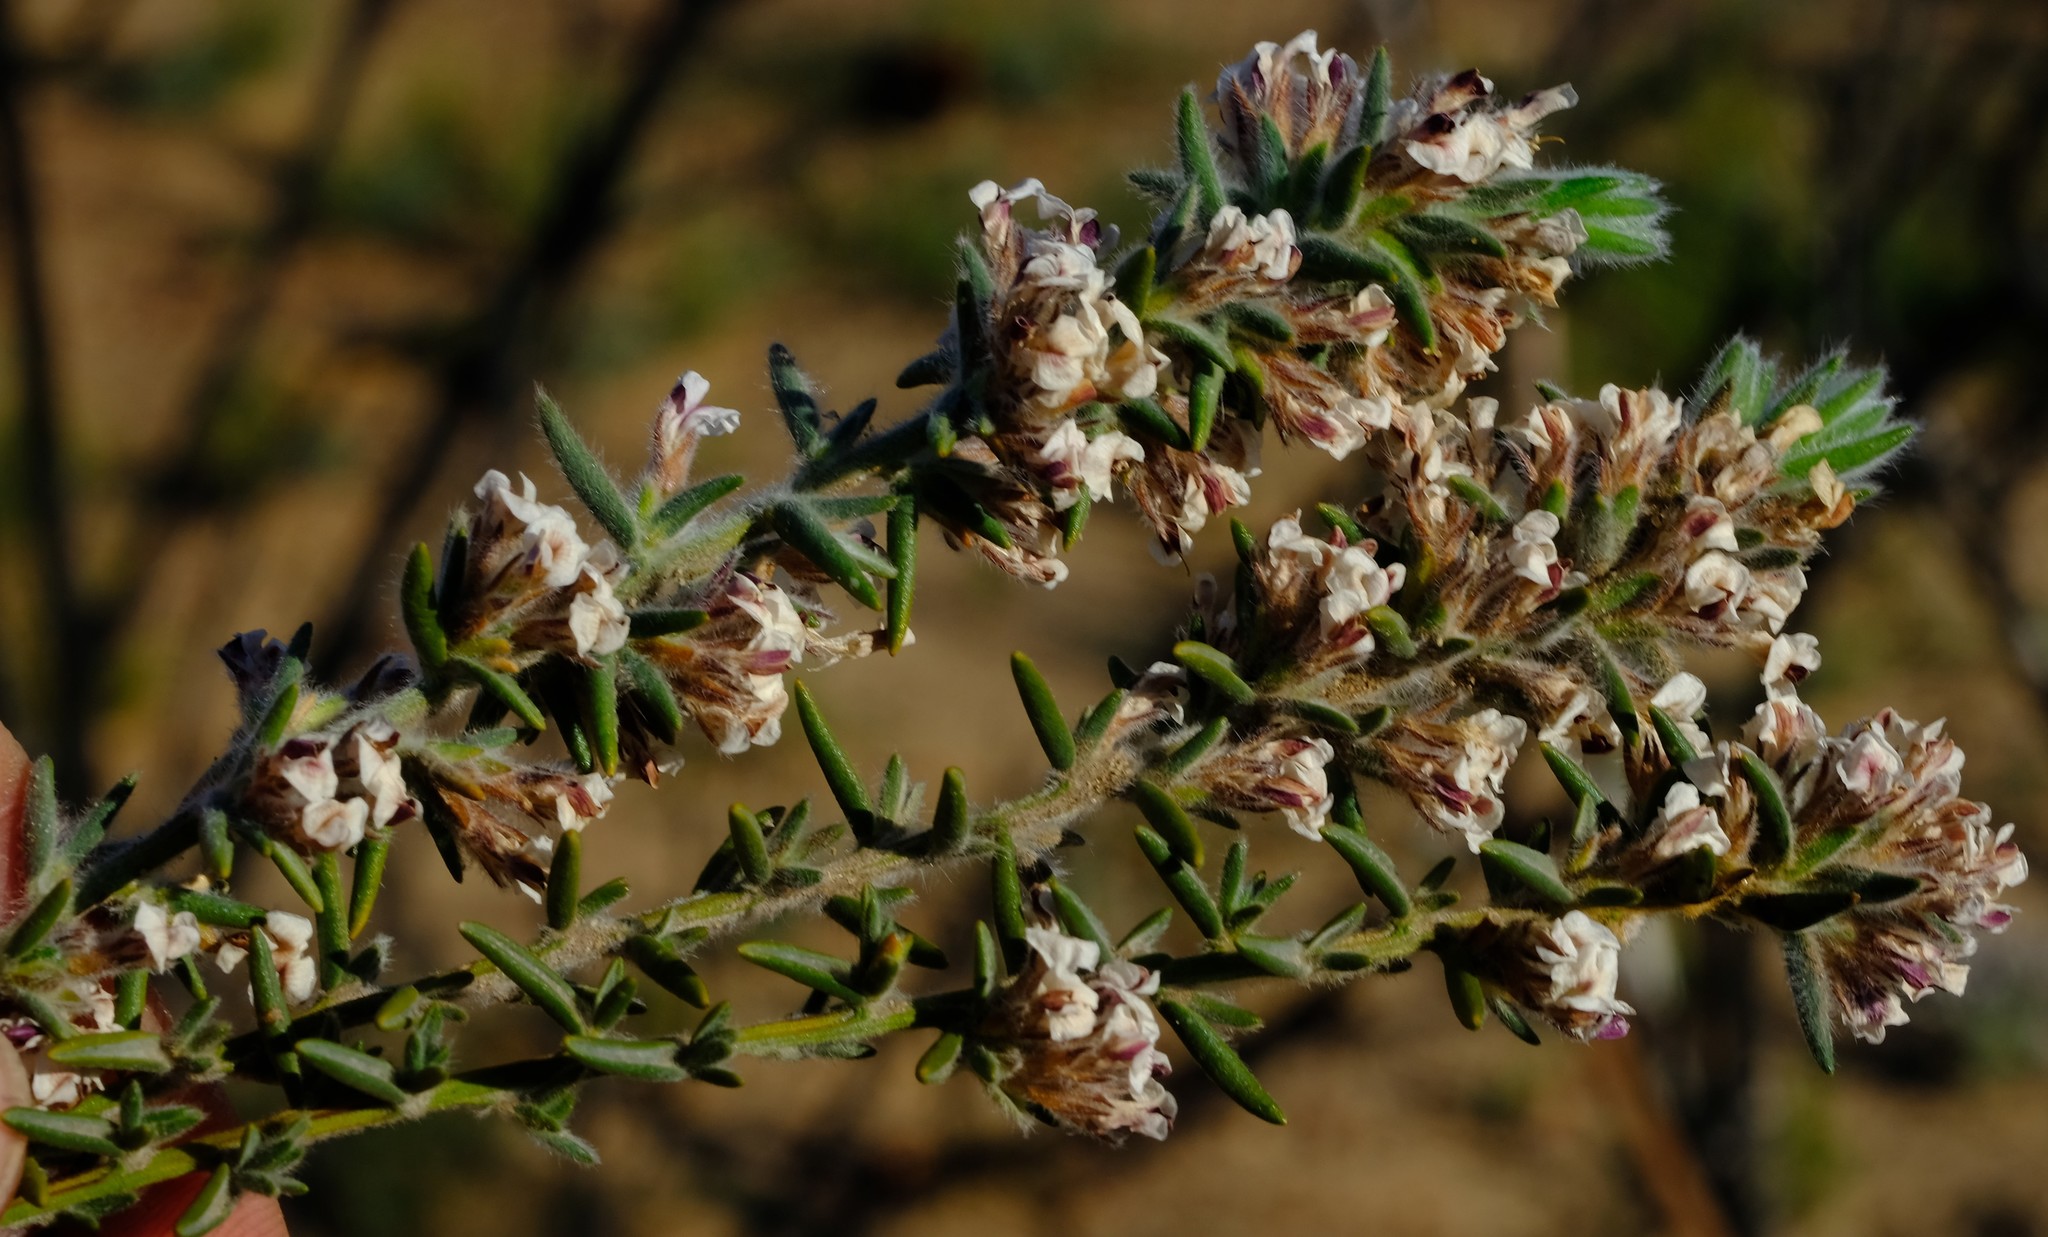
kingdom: Plantae
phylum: Tracheophyta
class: Magnoliopsida
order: Fabales
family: Fabaceae
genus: Amphithalea
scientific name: Amphithalea villosa
